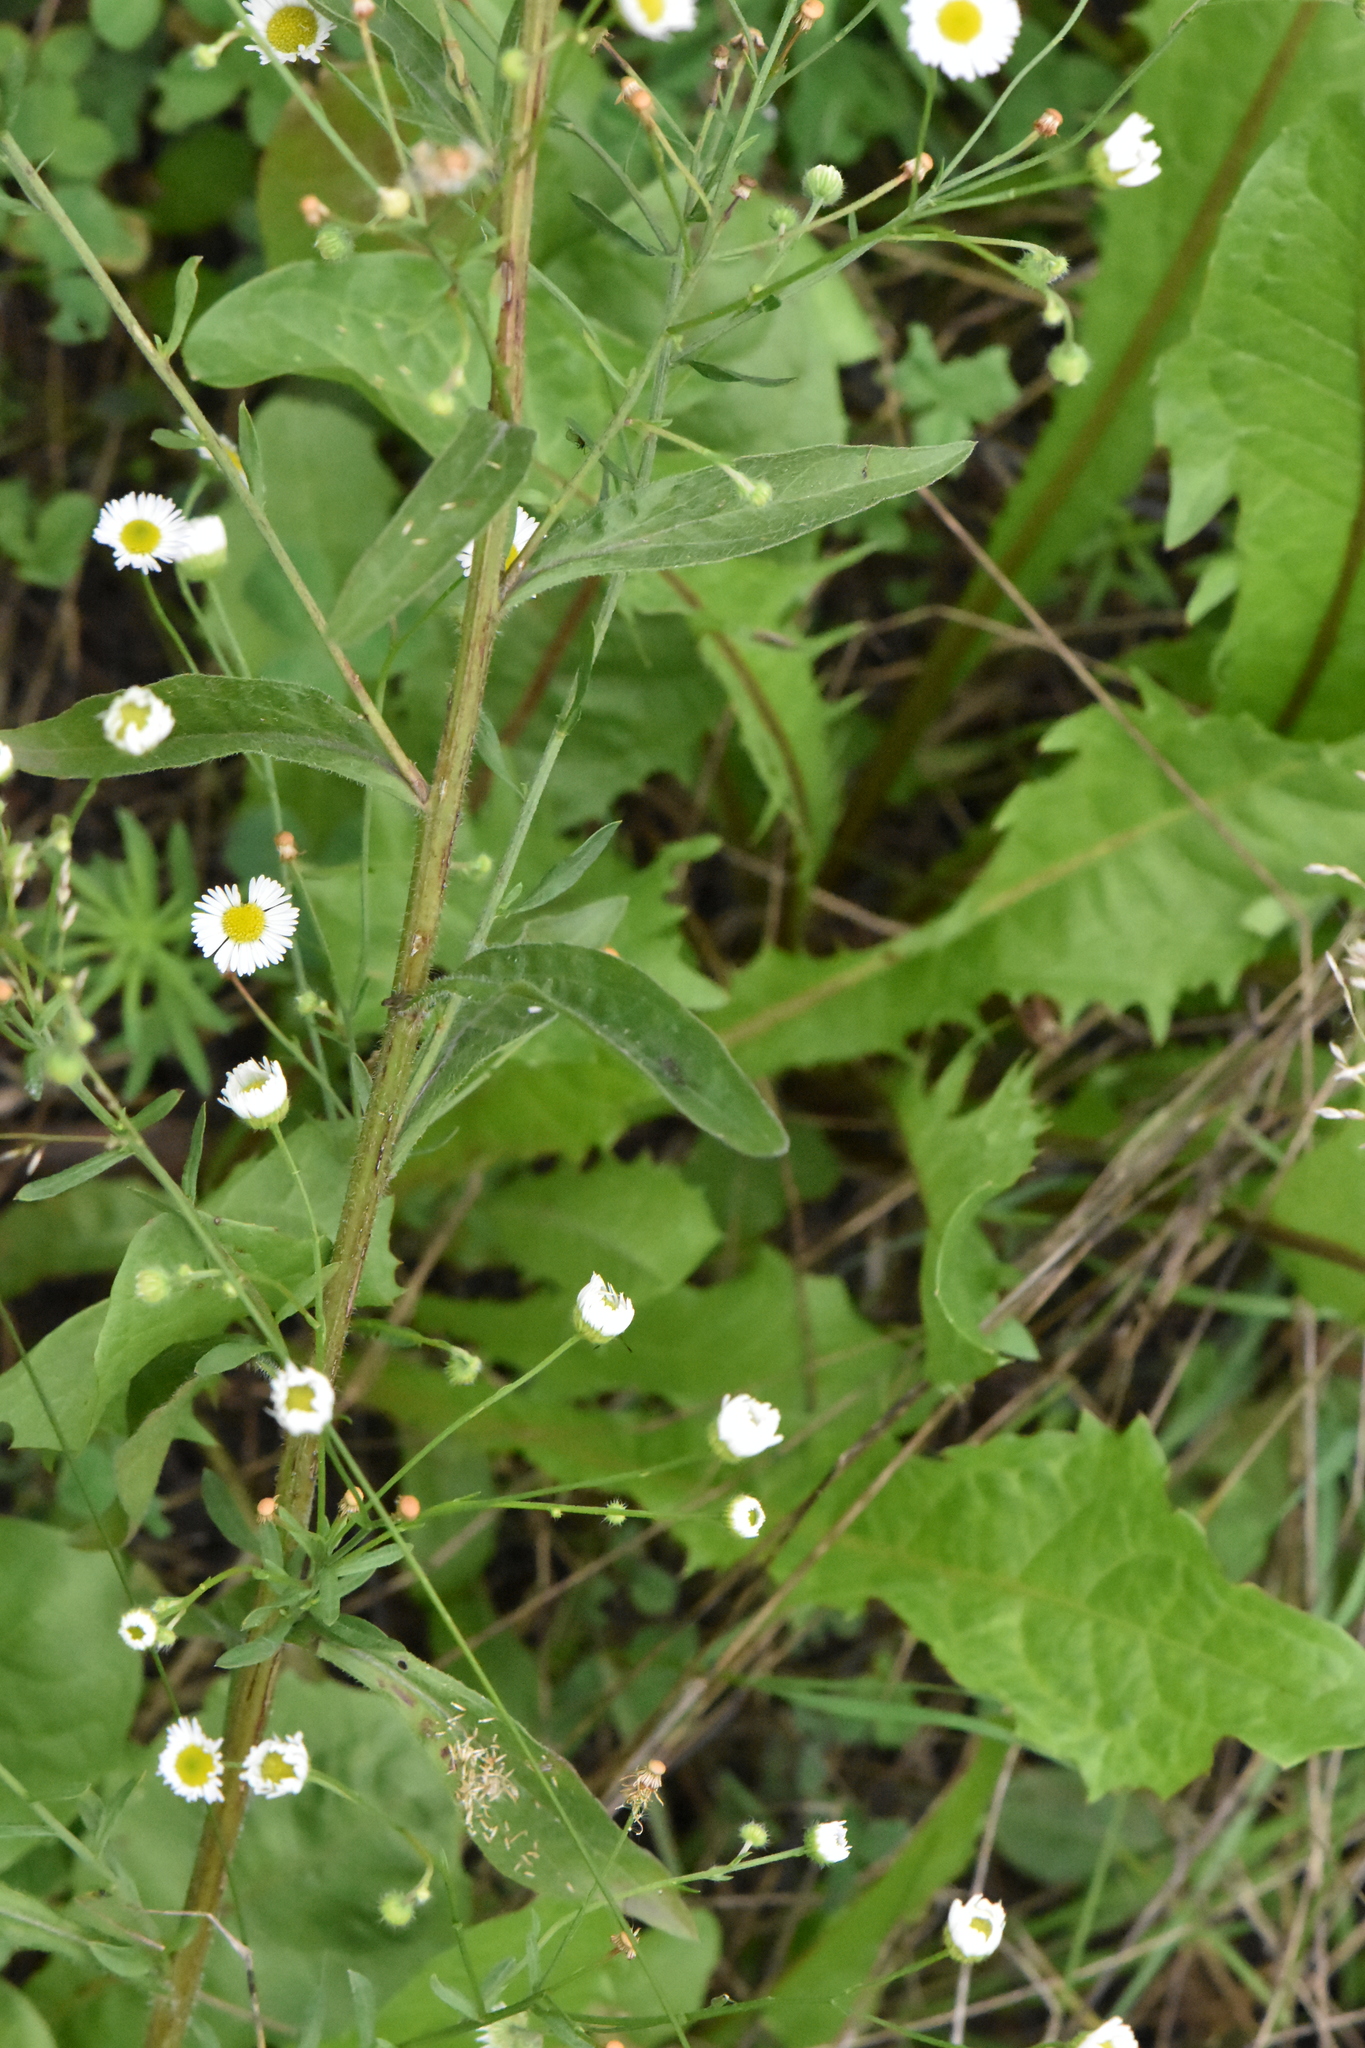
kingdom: Plantae
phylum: Tracheophyta
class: Magnoliopsida
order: Asterales
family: Asteraceae
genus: Erigeron
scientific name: Erigeron annuus
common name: Tall fleabane
